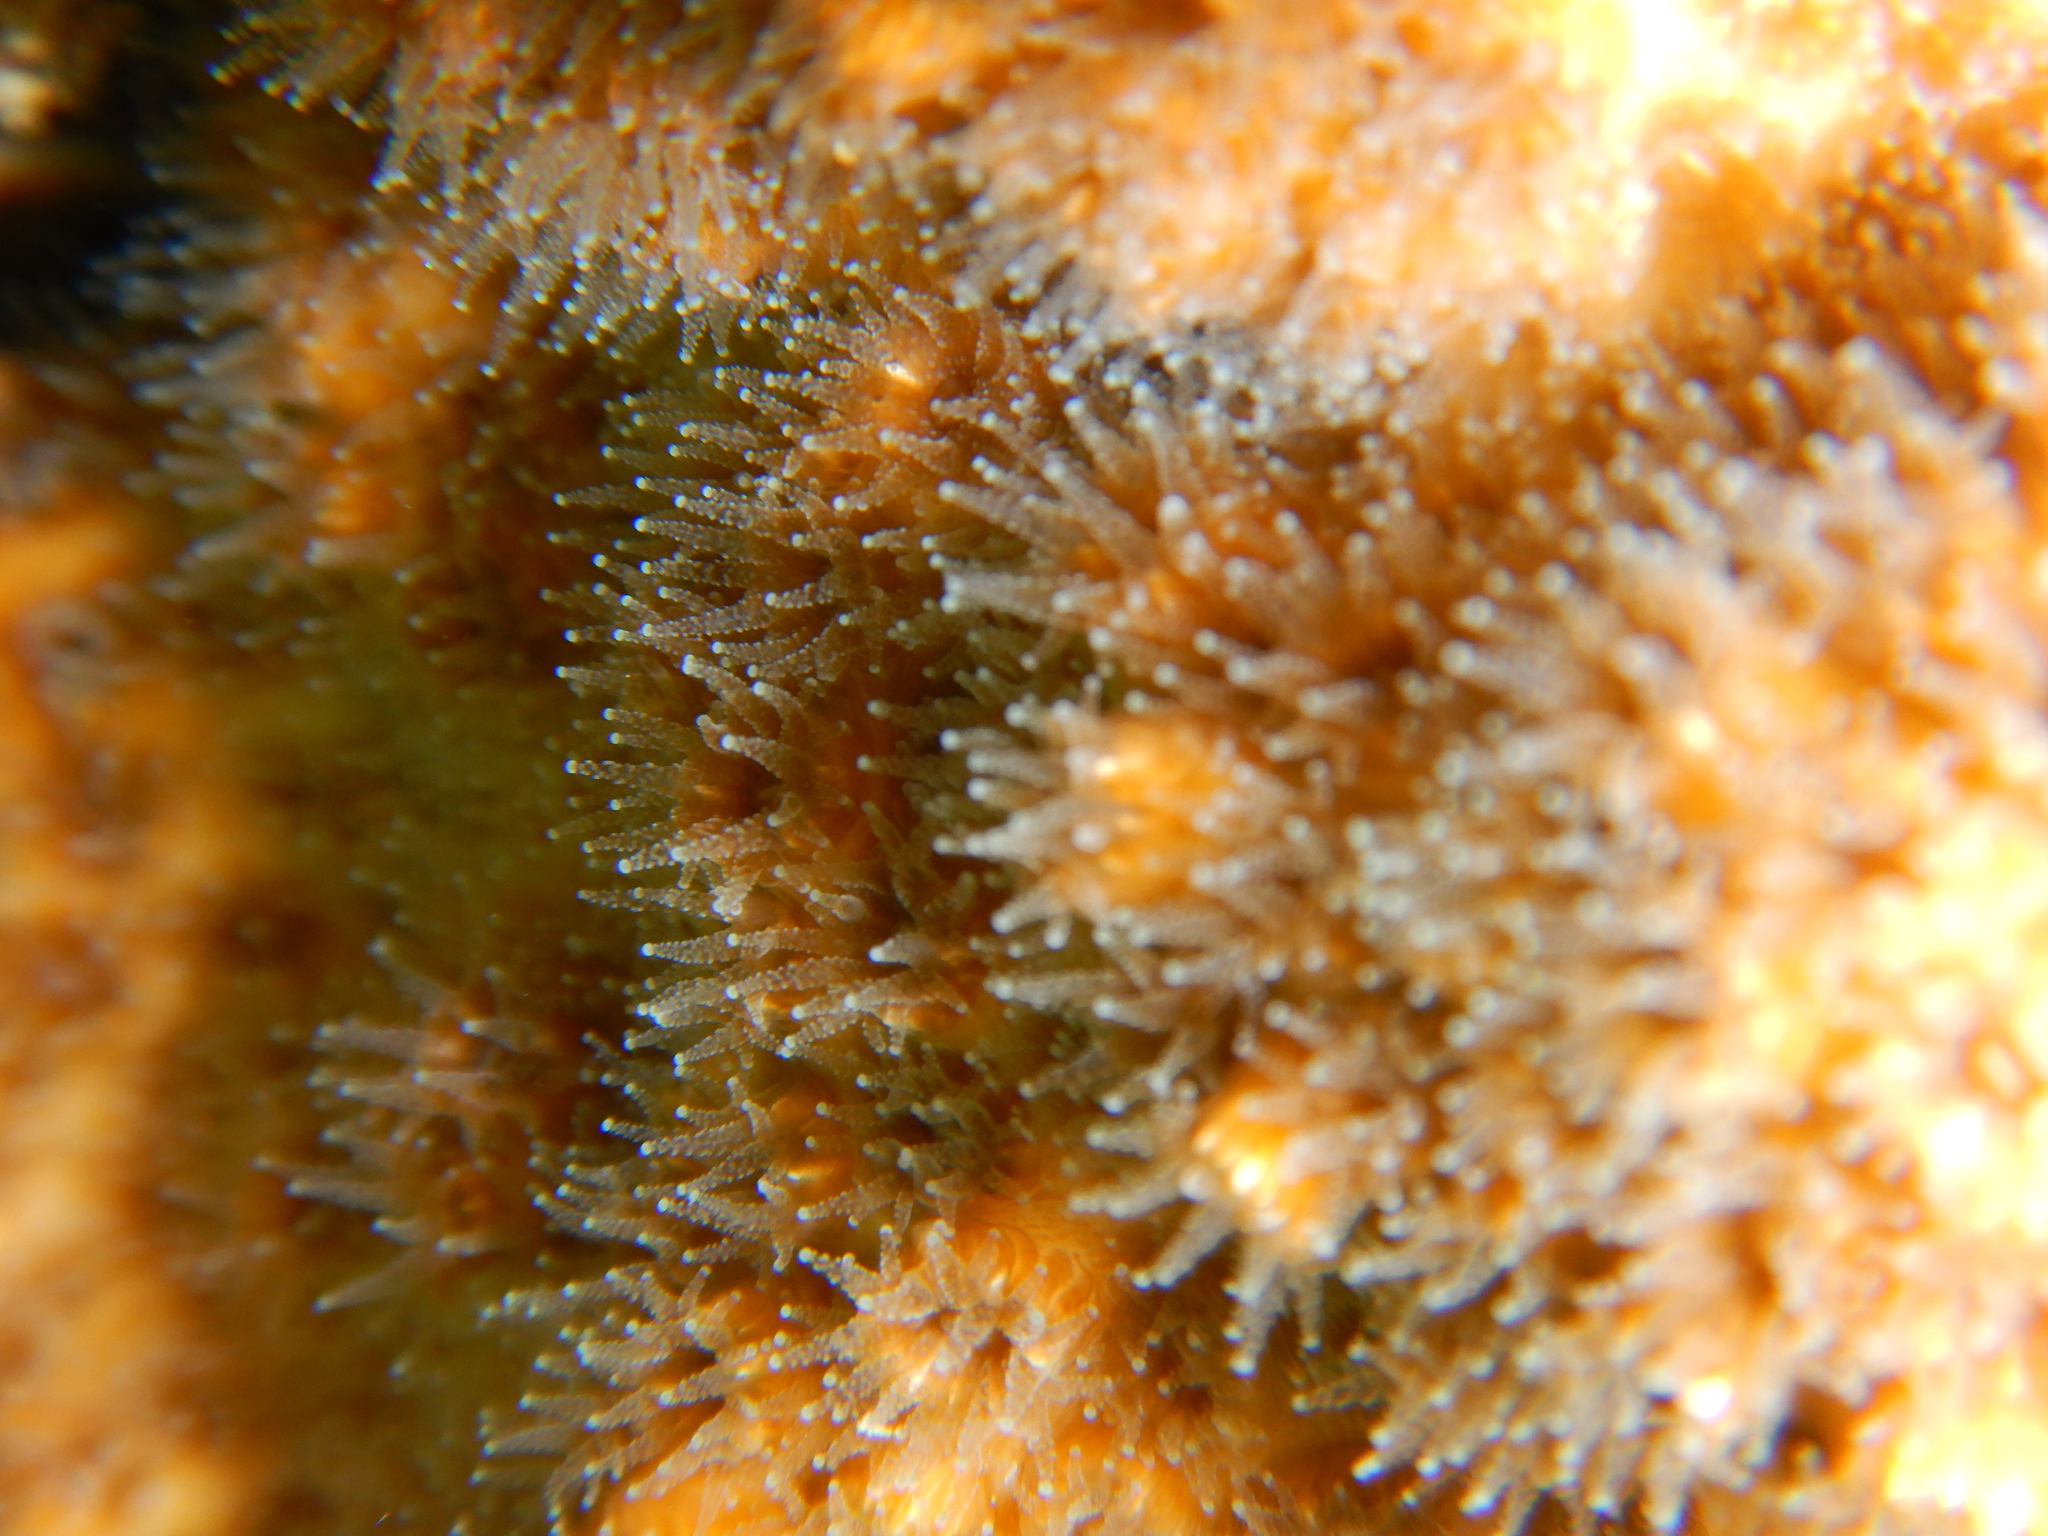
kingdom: Animalia
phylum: Cnidaria
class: Anthozoa
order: Scleractinia
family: Oculinidae
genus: Oculina
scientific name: Oculina patagonica
